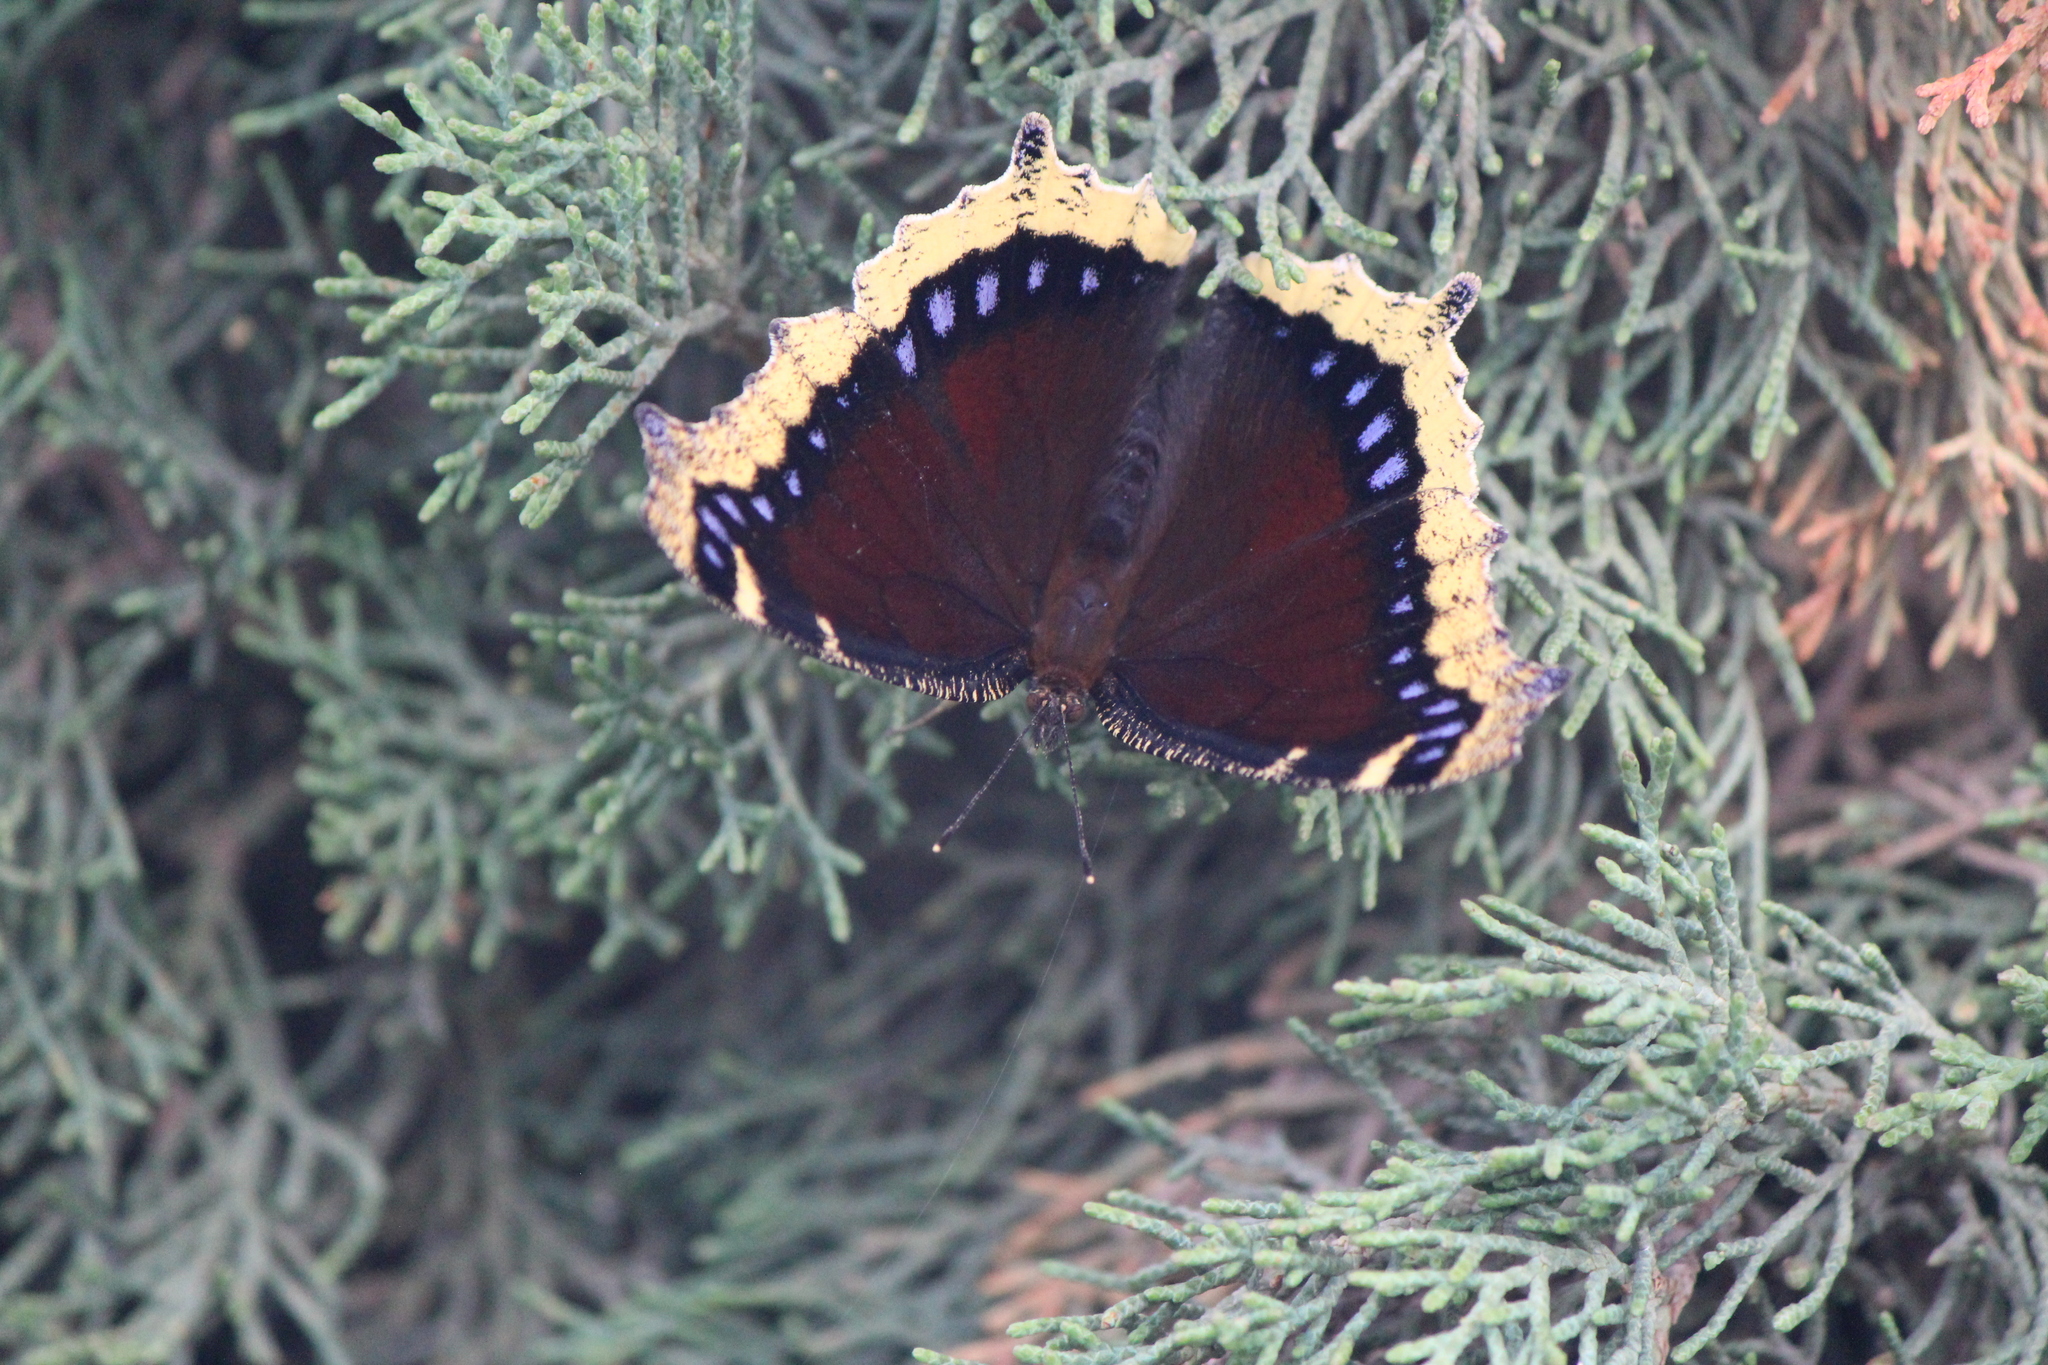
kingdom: Animalia
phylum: Arthropoda
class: Insecta
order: Lepidoptera
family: Nymphalidae
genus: Nymphalis
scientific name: Nymphalis antiopa
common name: Camberwell beauty
